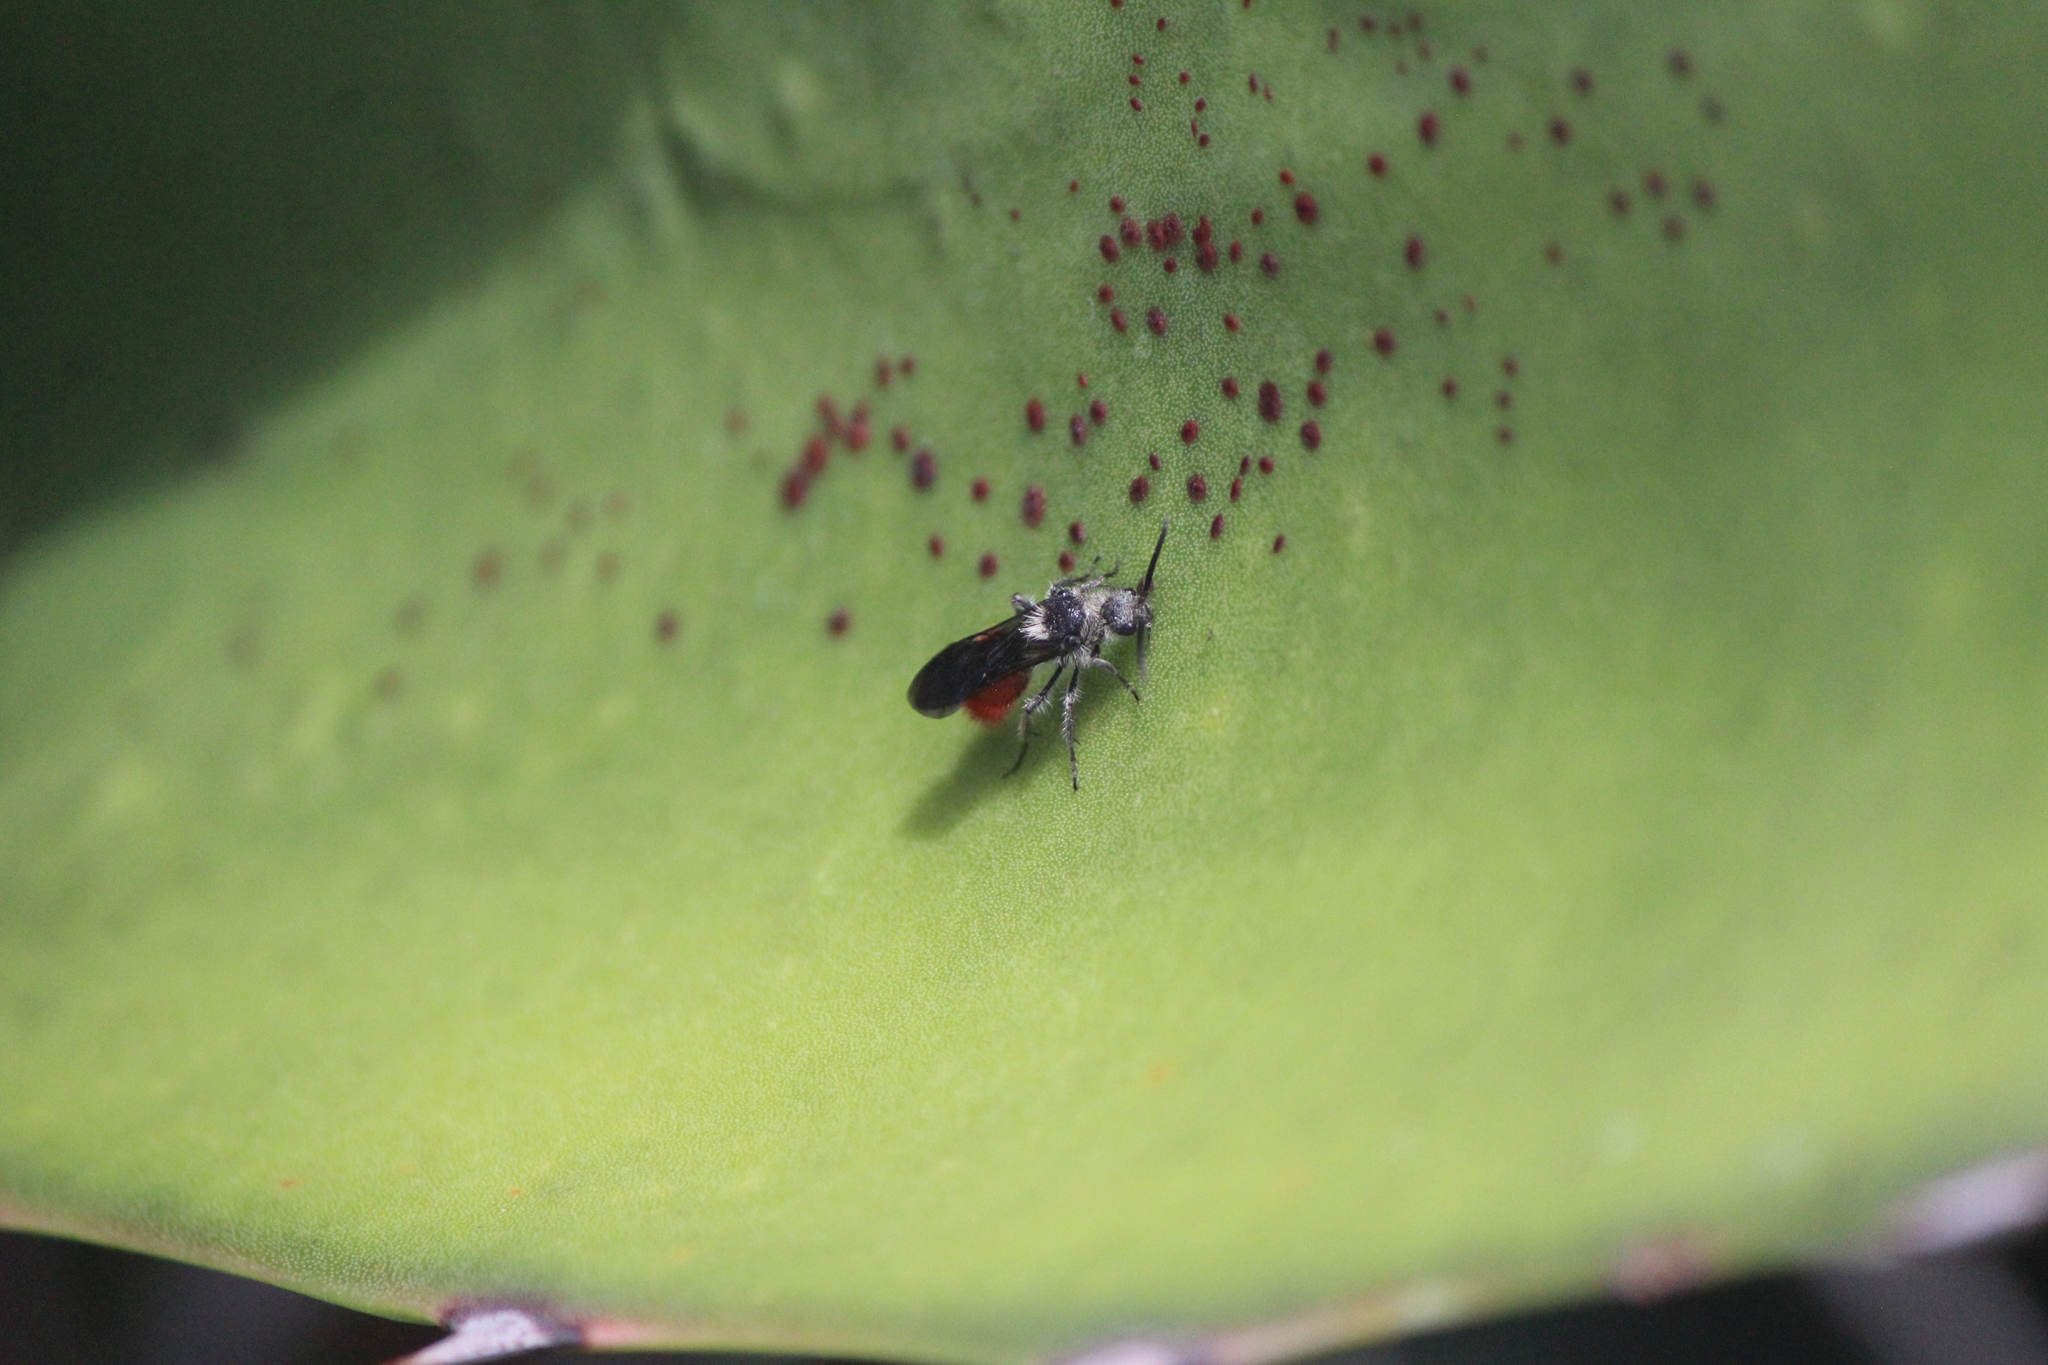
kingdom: Animalia
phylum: Arthropoda
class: Insecta
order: Hymenoptera
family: Mutillidae
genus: Dasymutilla
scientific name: Dasymutilla
